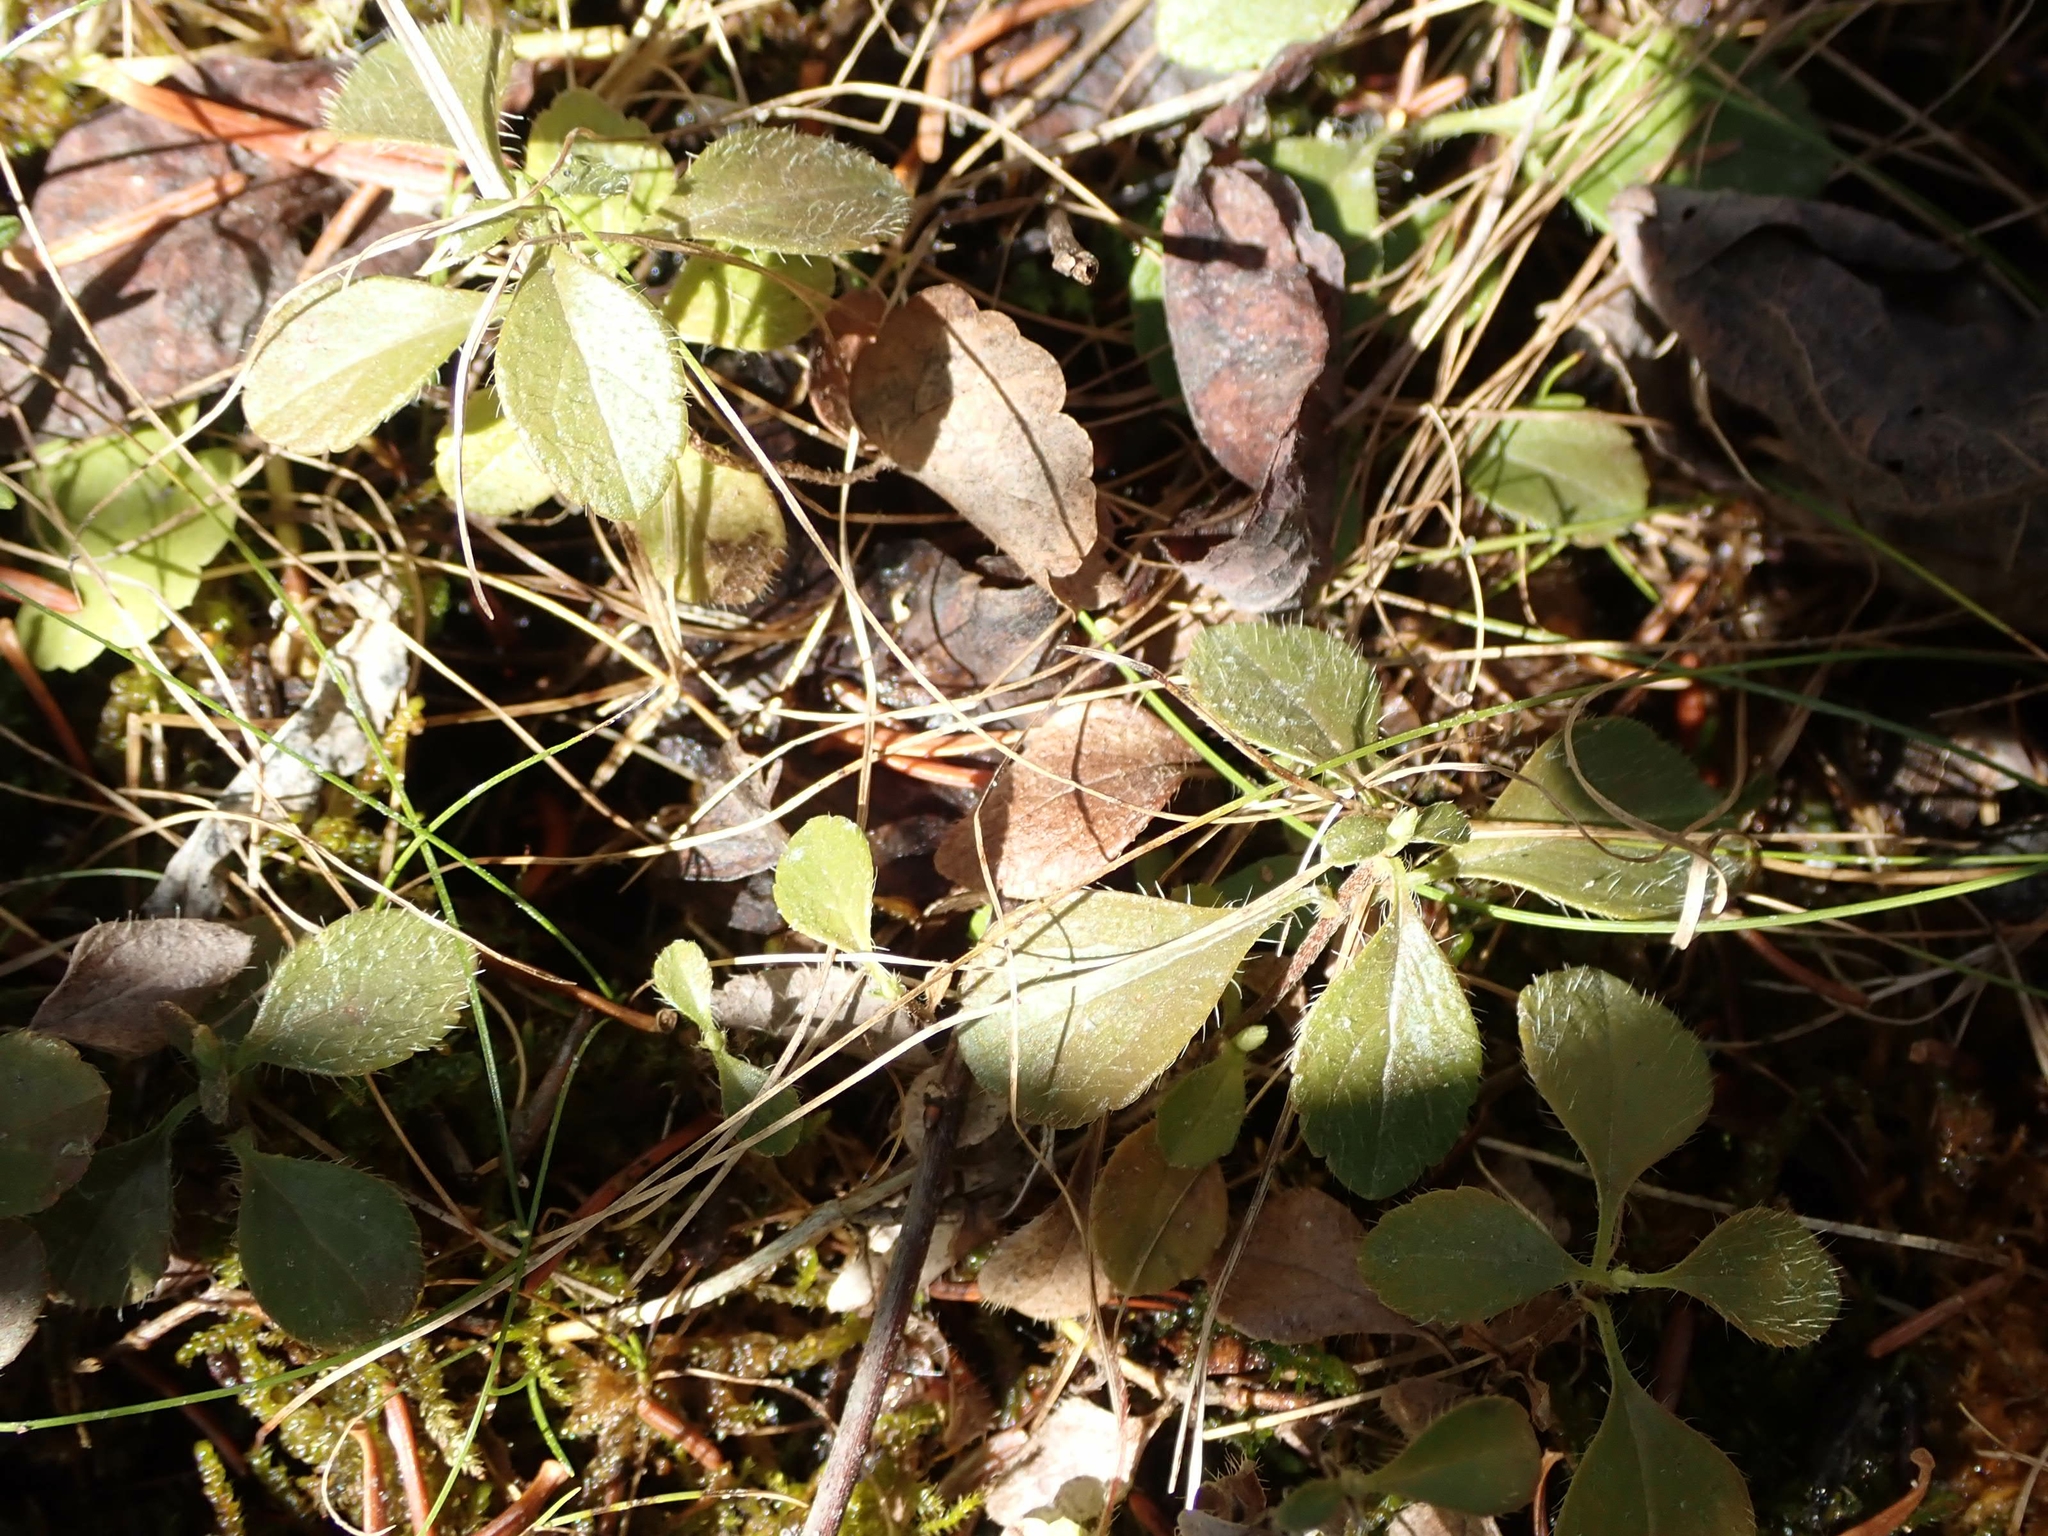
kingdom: Plantae
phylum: Tracheophyta
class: Magnoliopsida
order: Dipsacales
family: Caprifoliaceae
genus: Linnaea
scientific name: Linnaea borealis
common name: Twinflower
